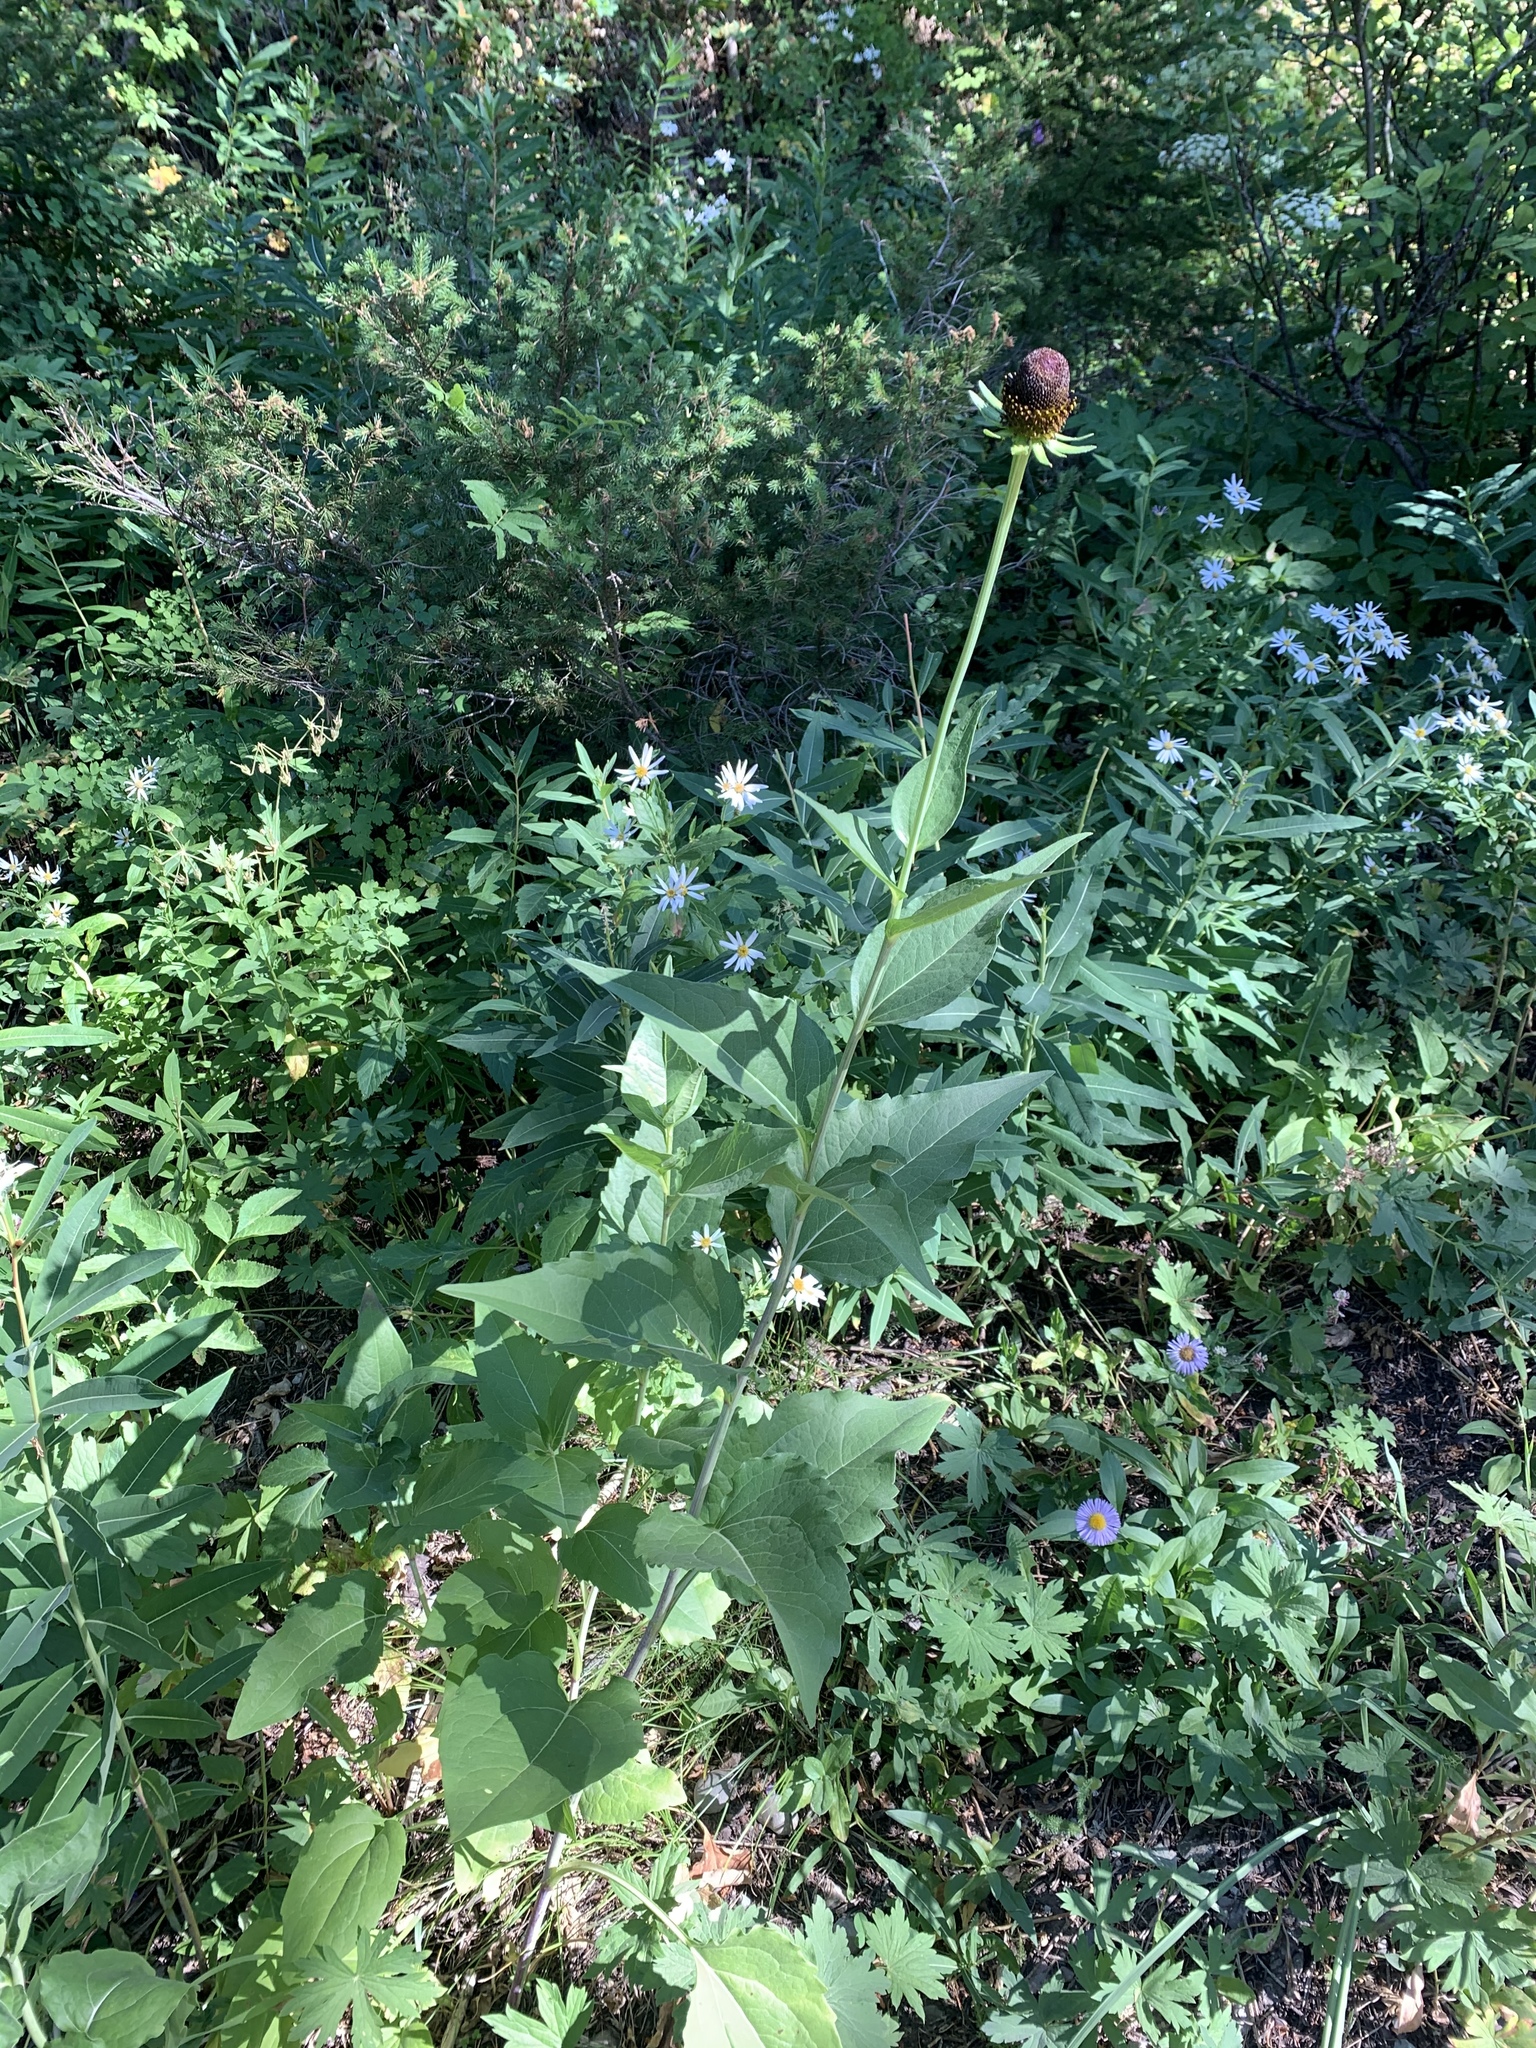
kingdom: Plantae
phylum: Tracheophyta
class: Magnoliopsida
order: Asterales
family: Asteraceae
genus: Rudbeckia
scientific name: Rudbeckia occidentalis
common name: Western coneflower
